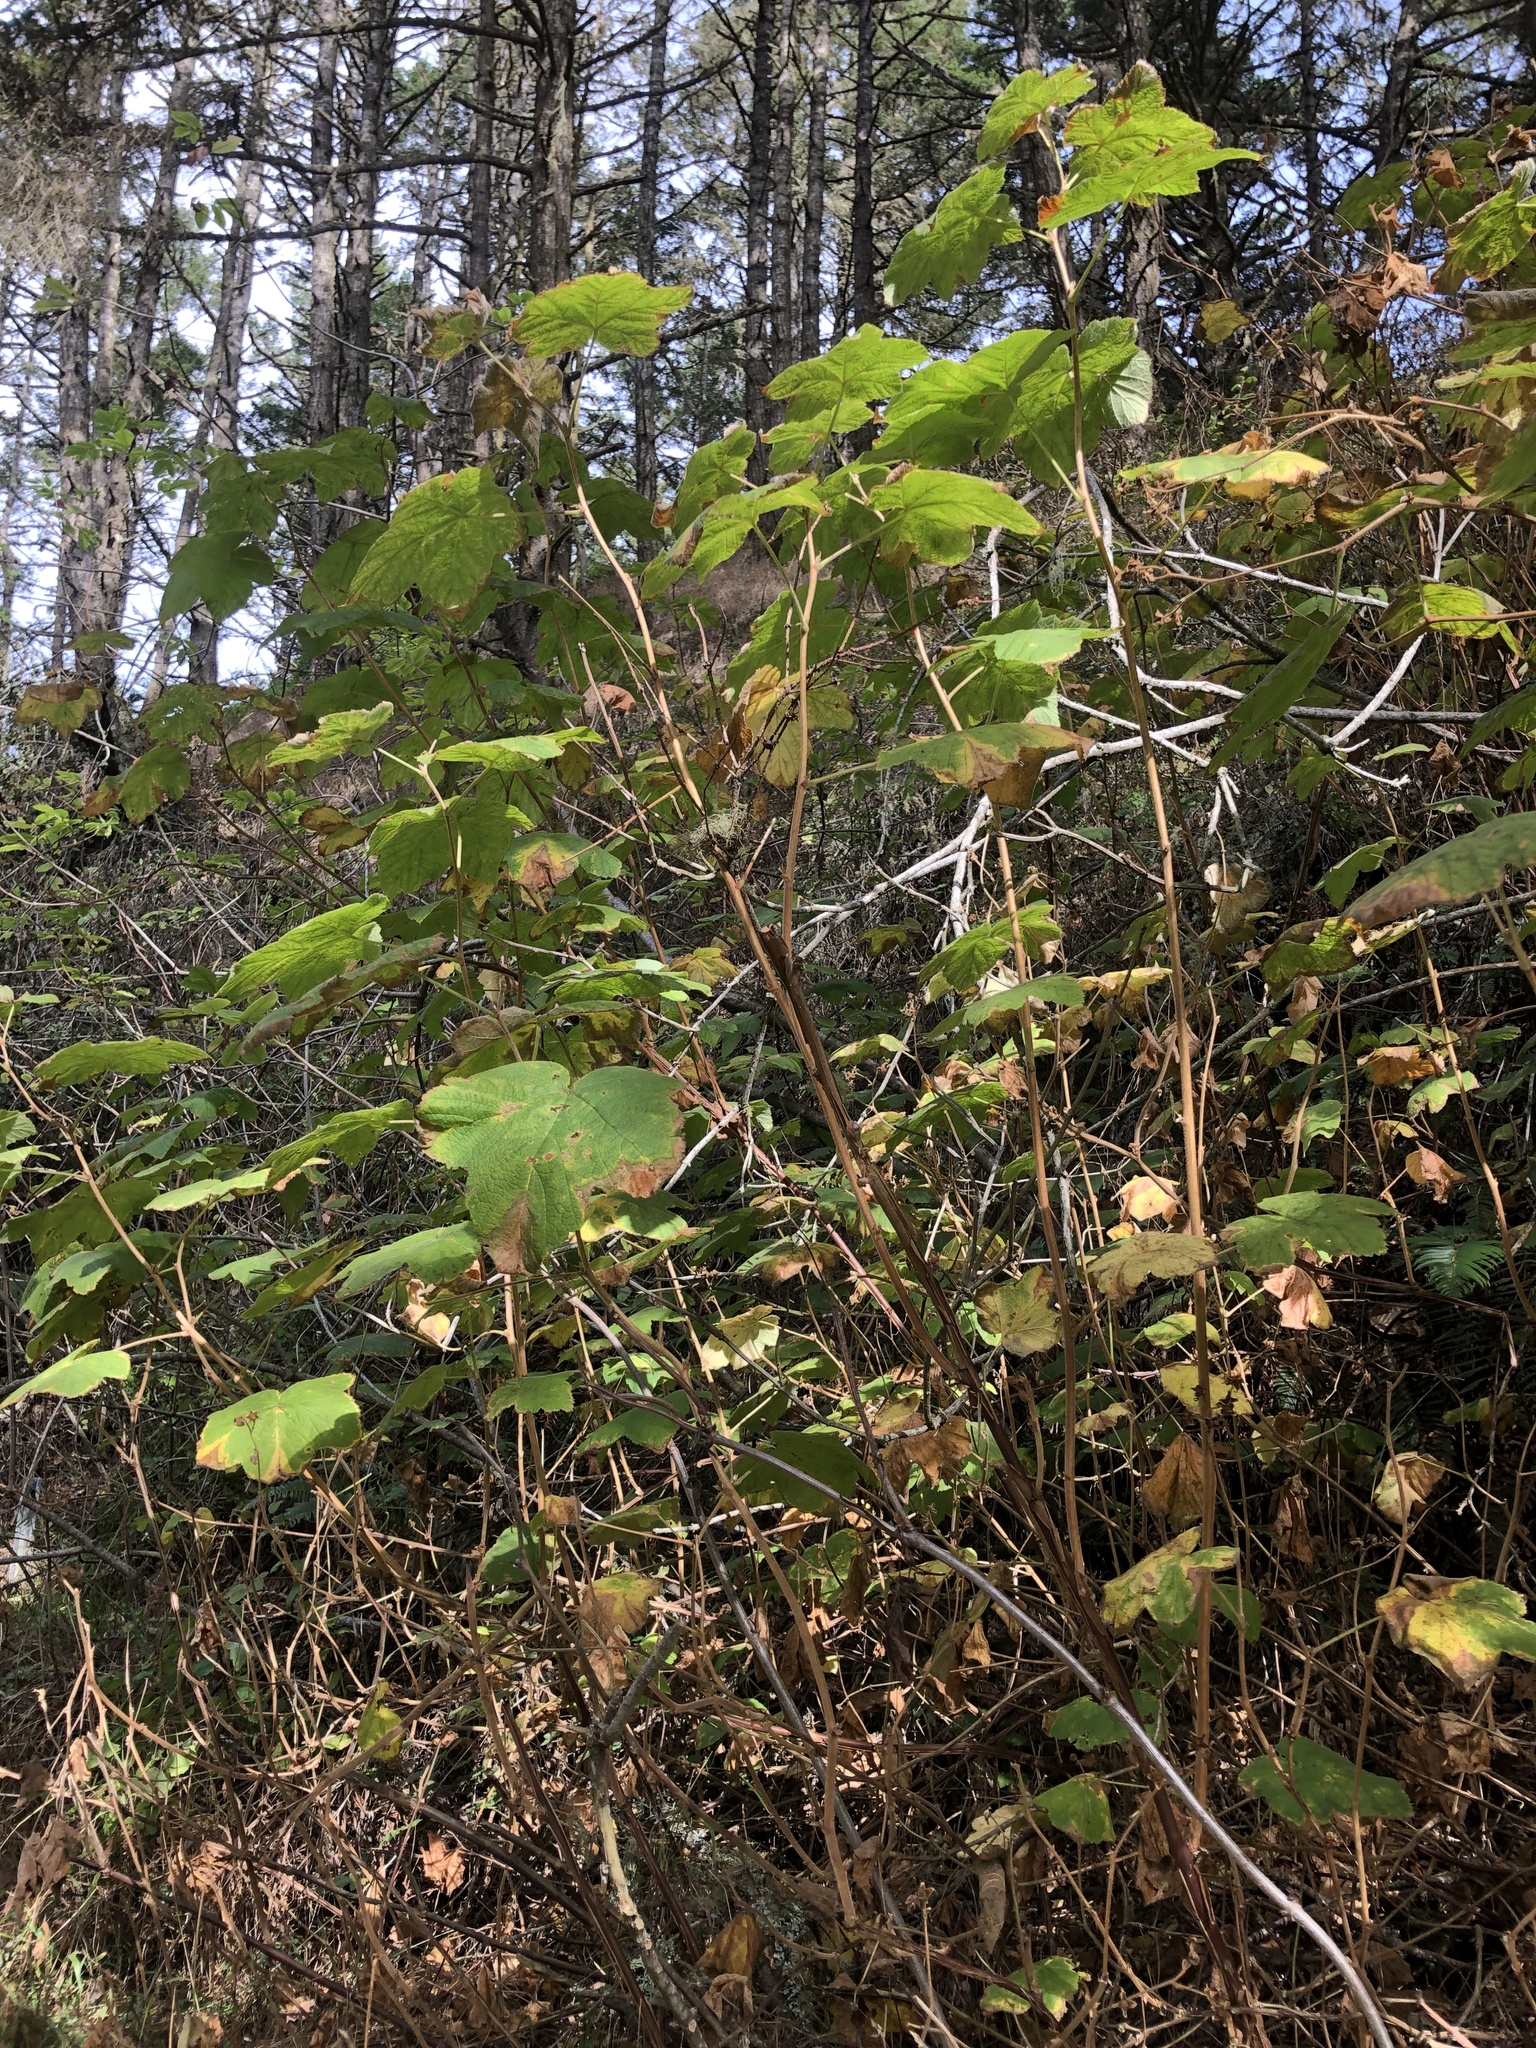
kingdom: Plantae
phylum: Tracheophyta
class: Magnoliopsida
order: Rosales
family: Rosaceae
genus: Rubus
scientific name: Rubus parviflorus
